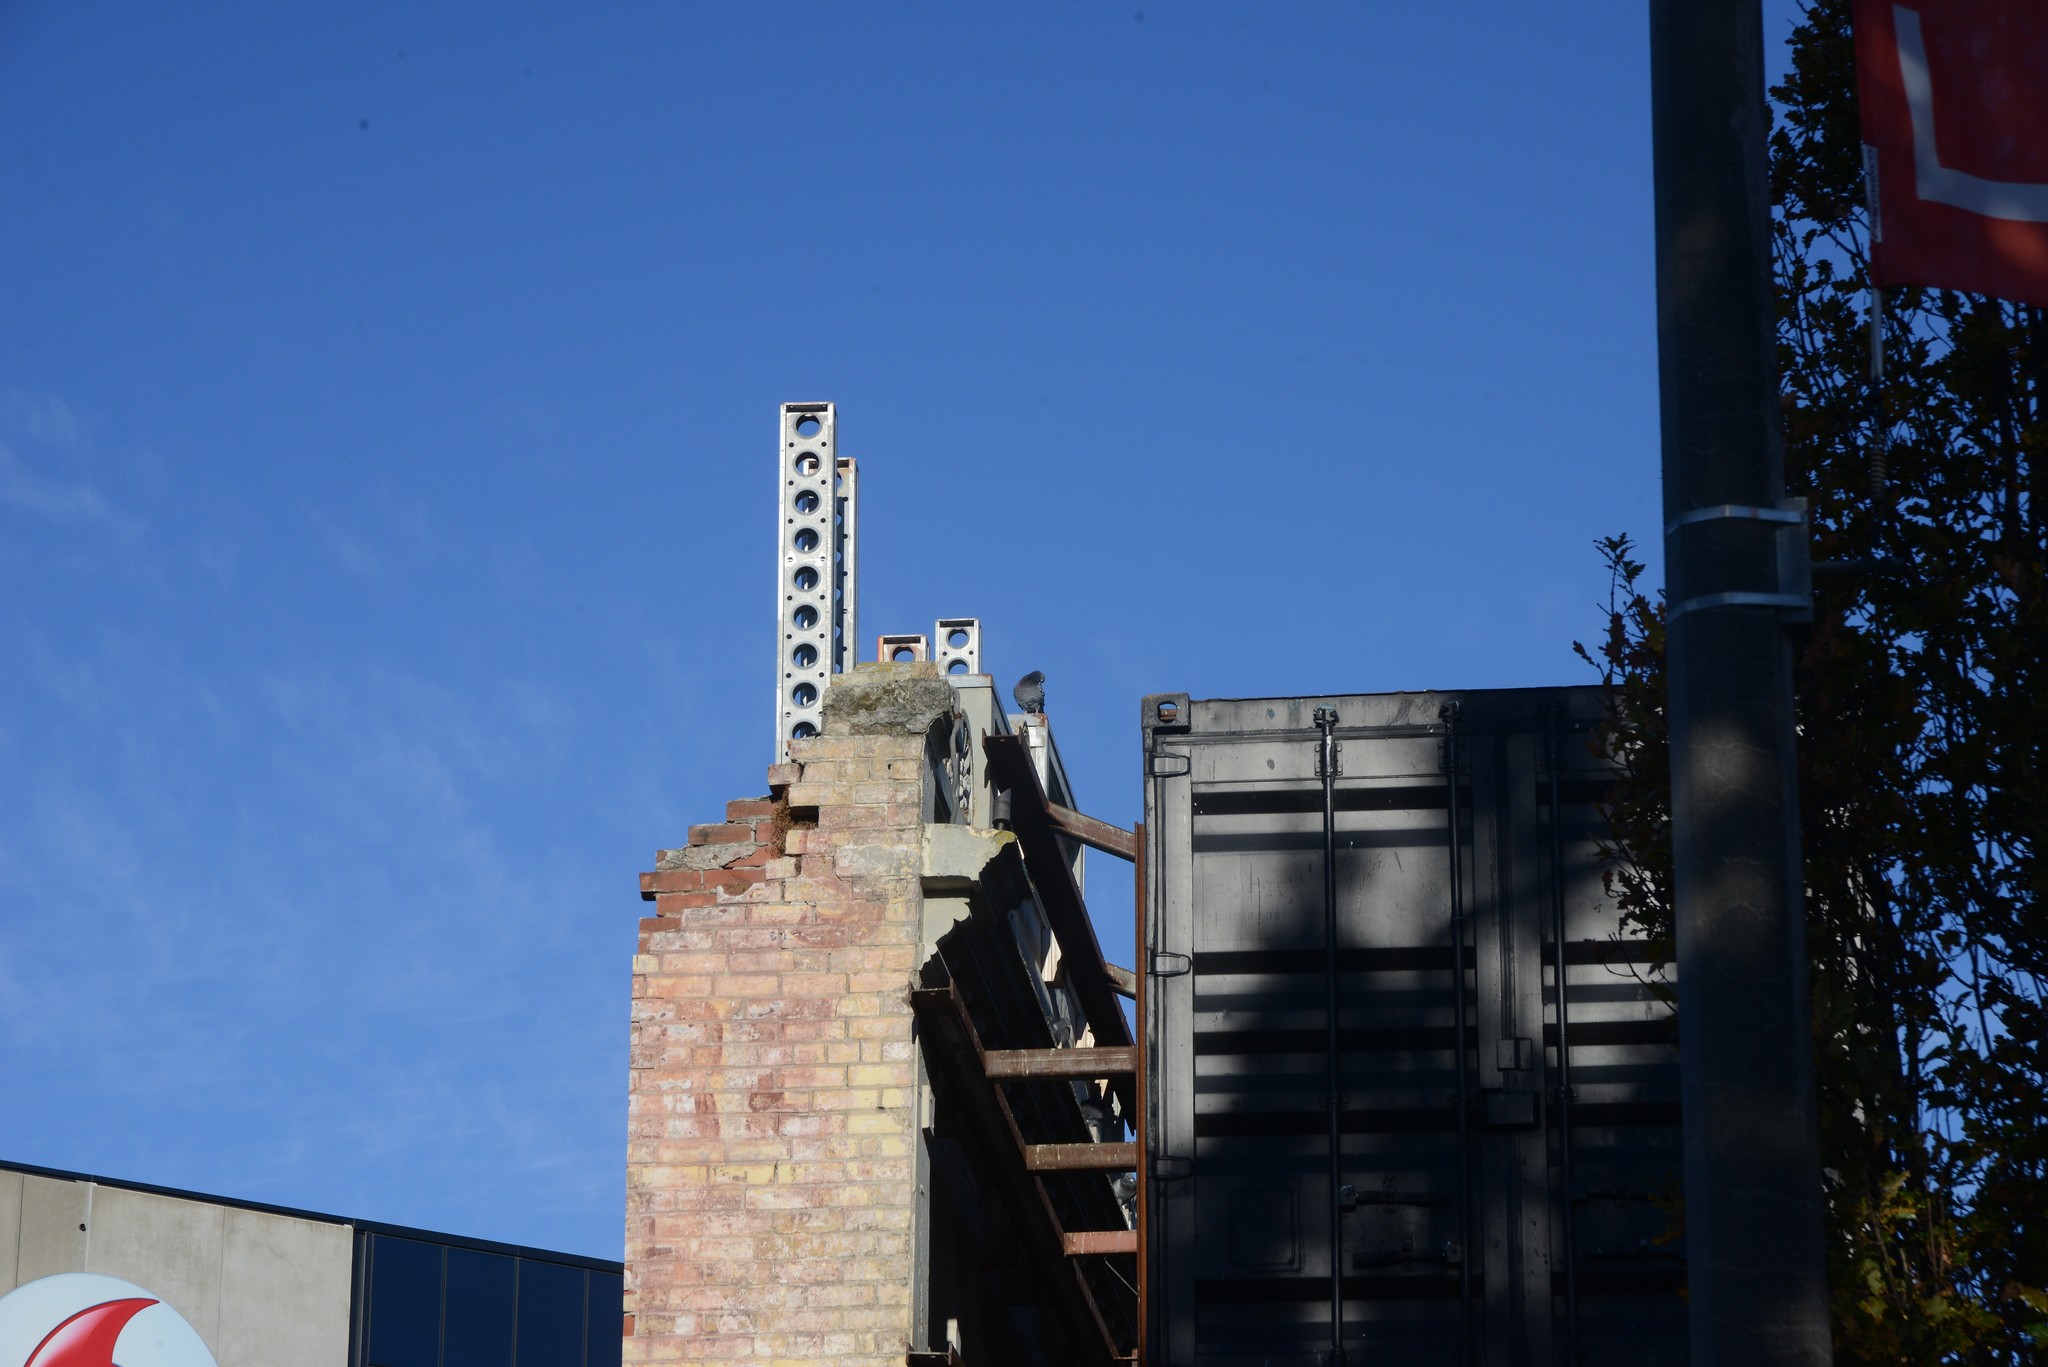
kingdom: Animalia
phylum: Chordata
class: Aves
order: Columbiformes
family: Columbidae
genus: Columba
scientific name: Columba livia
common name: Rock pigeon
